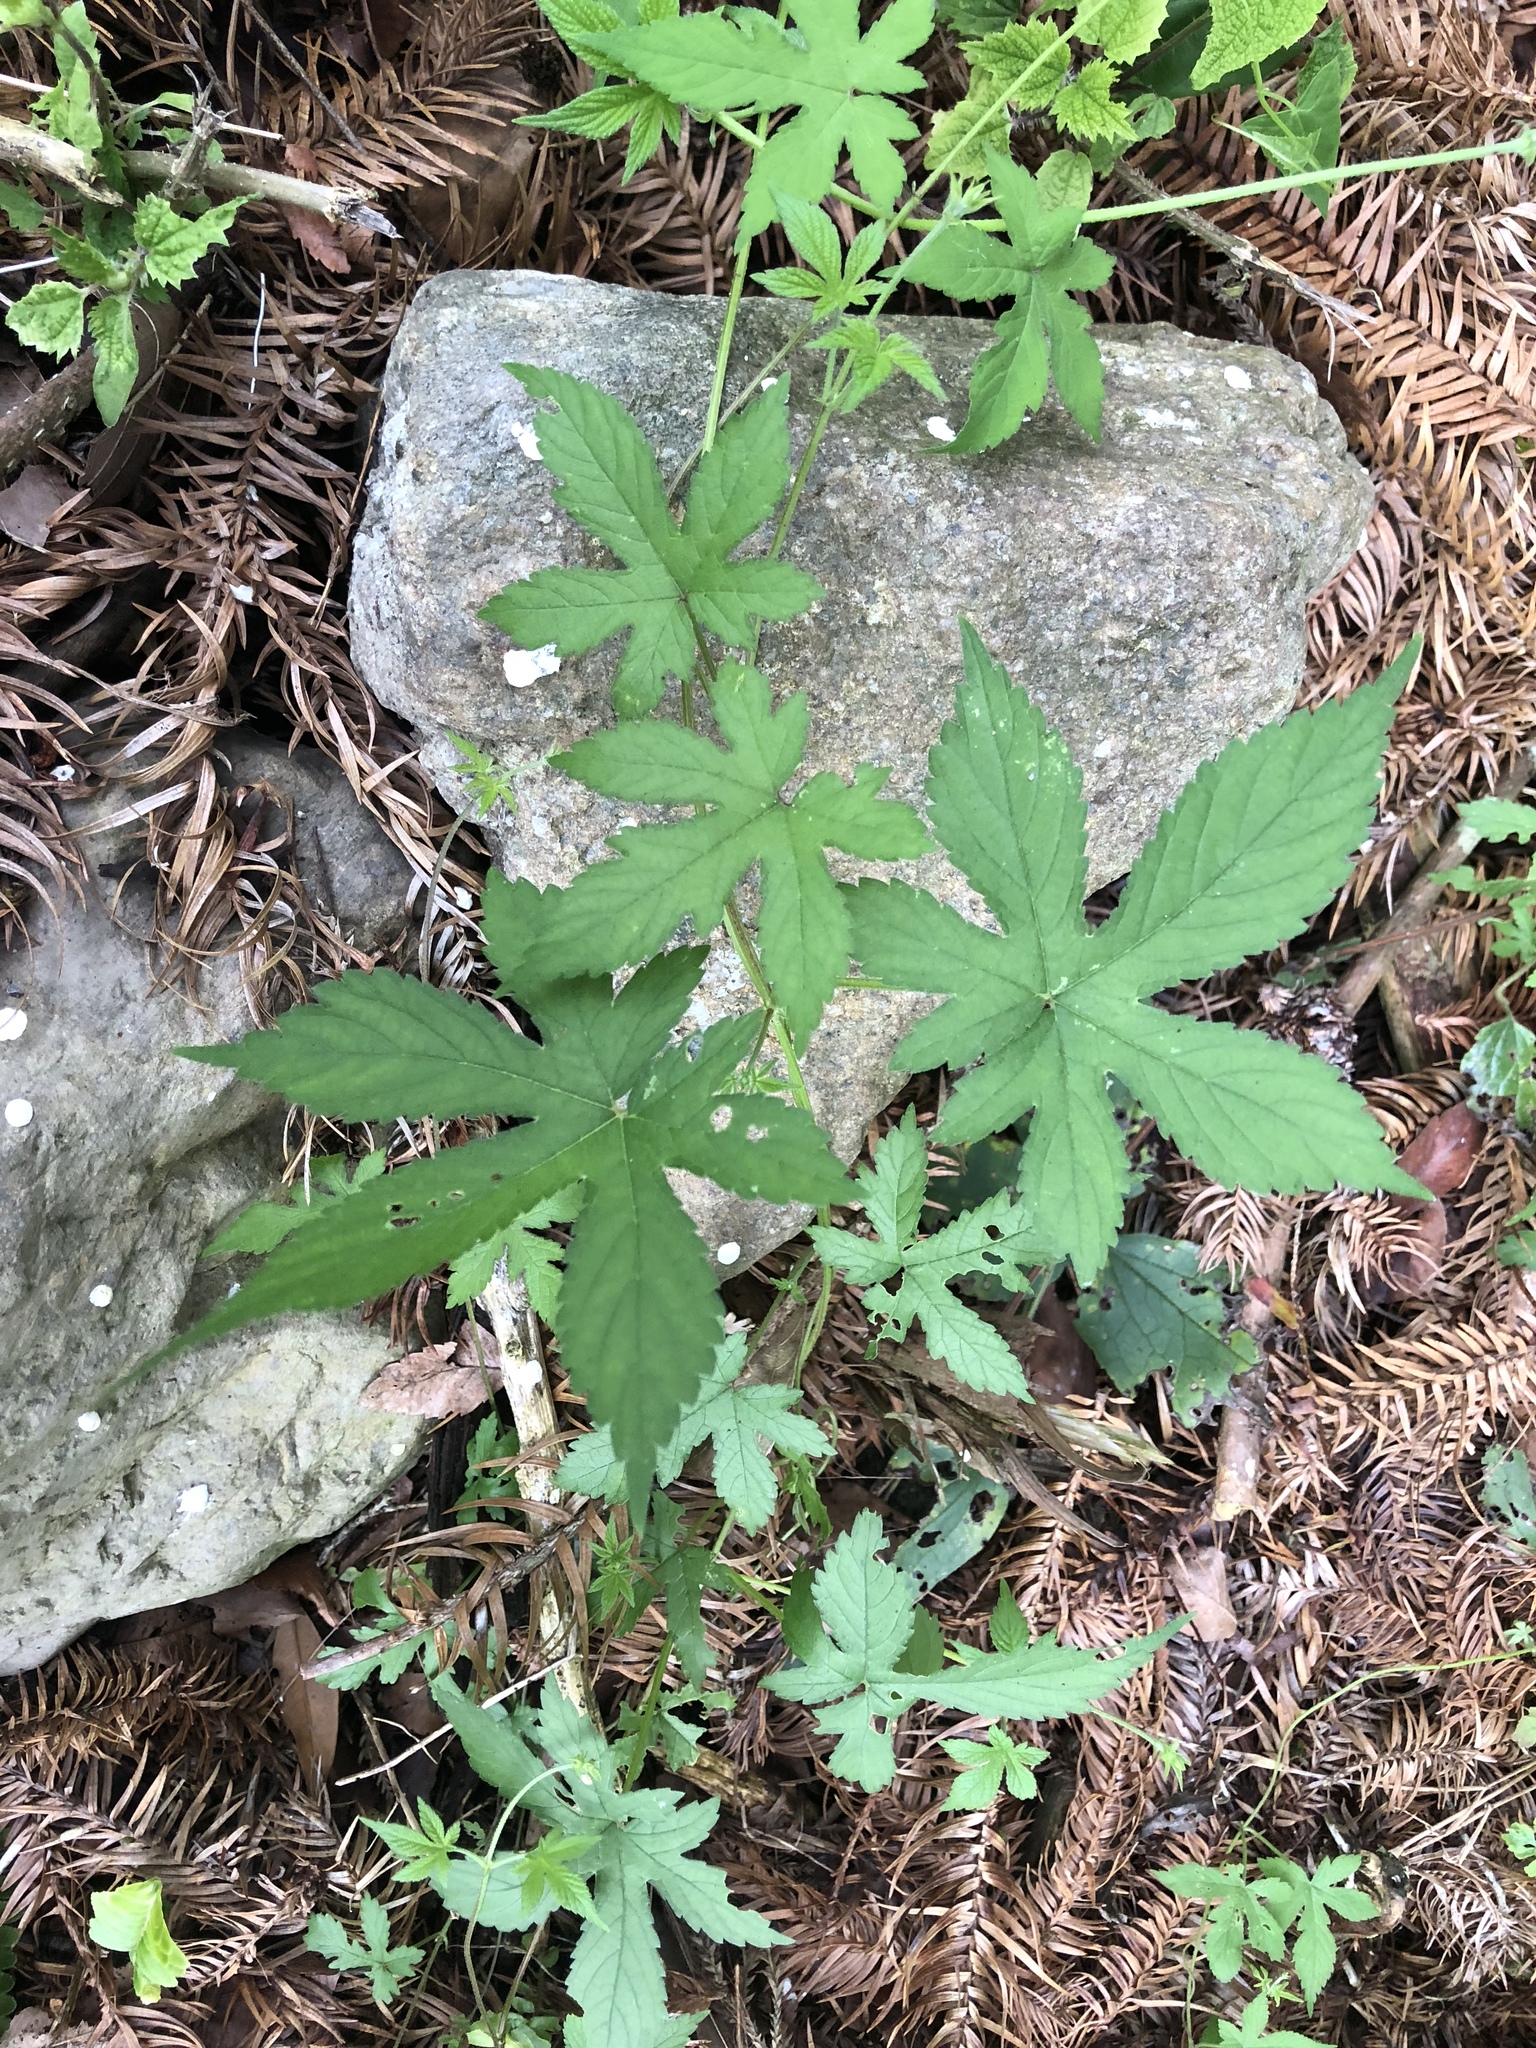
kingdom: Plantae
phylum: Tracheophyta
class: Magnoliopsida
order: Rosales
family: Cannabaceae
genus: Humulus
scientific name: Humulus scandens
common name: Japanese hop
